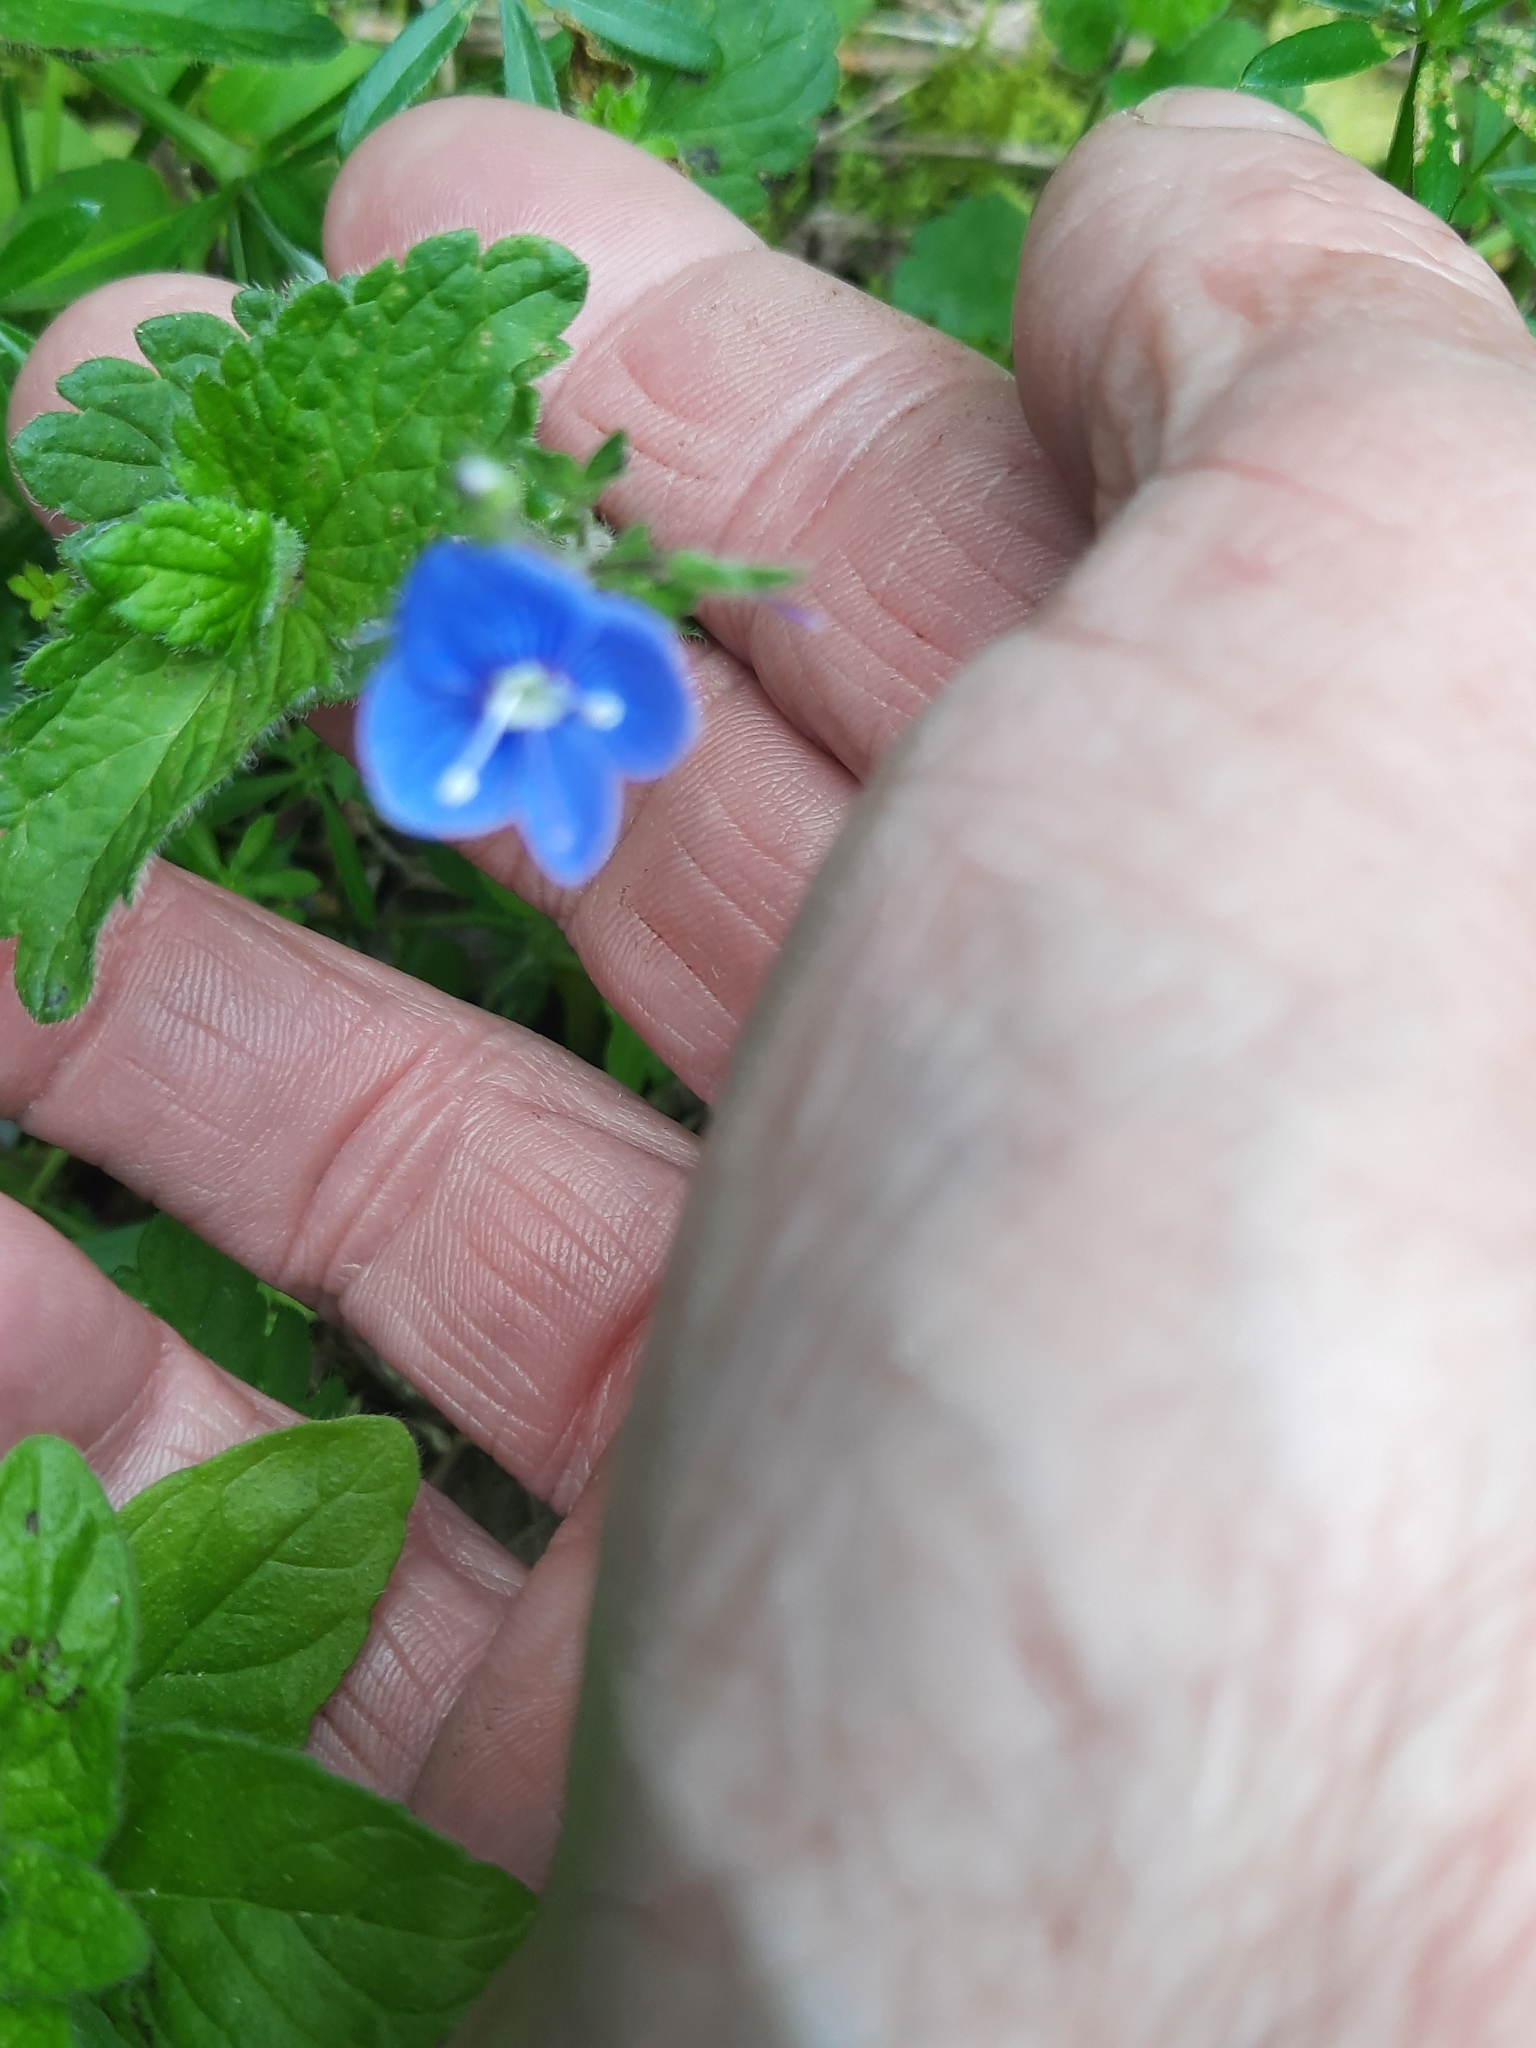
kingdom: Plantae
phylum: Tracheophyta
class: Magnoliopsida
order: Lamiales
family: Plantaginaceae
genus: Veronica
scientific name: Veronica chamaedrys
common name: Germander speedwell
